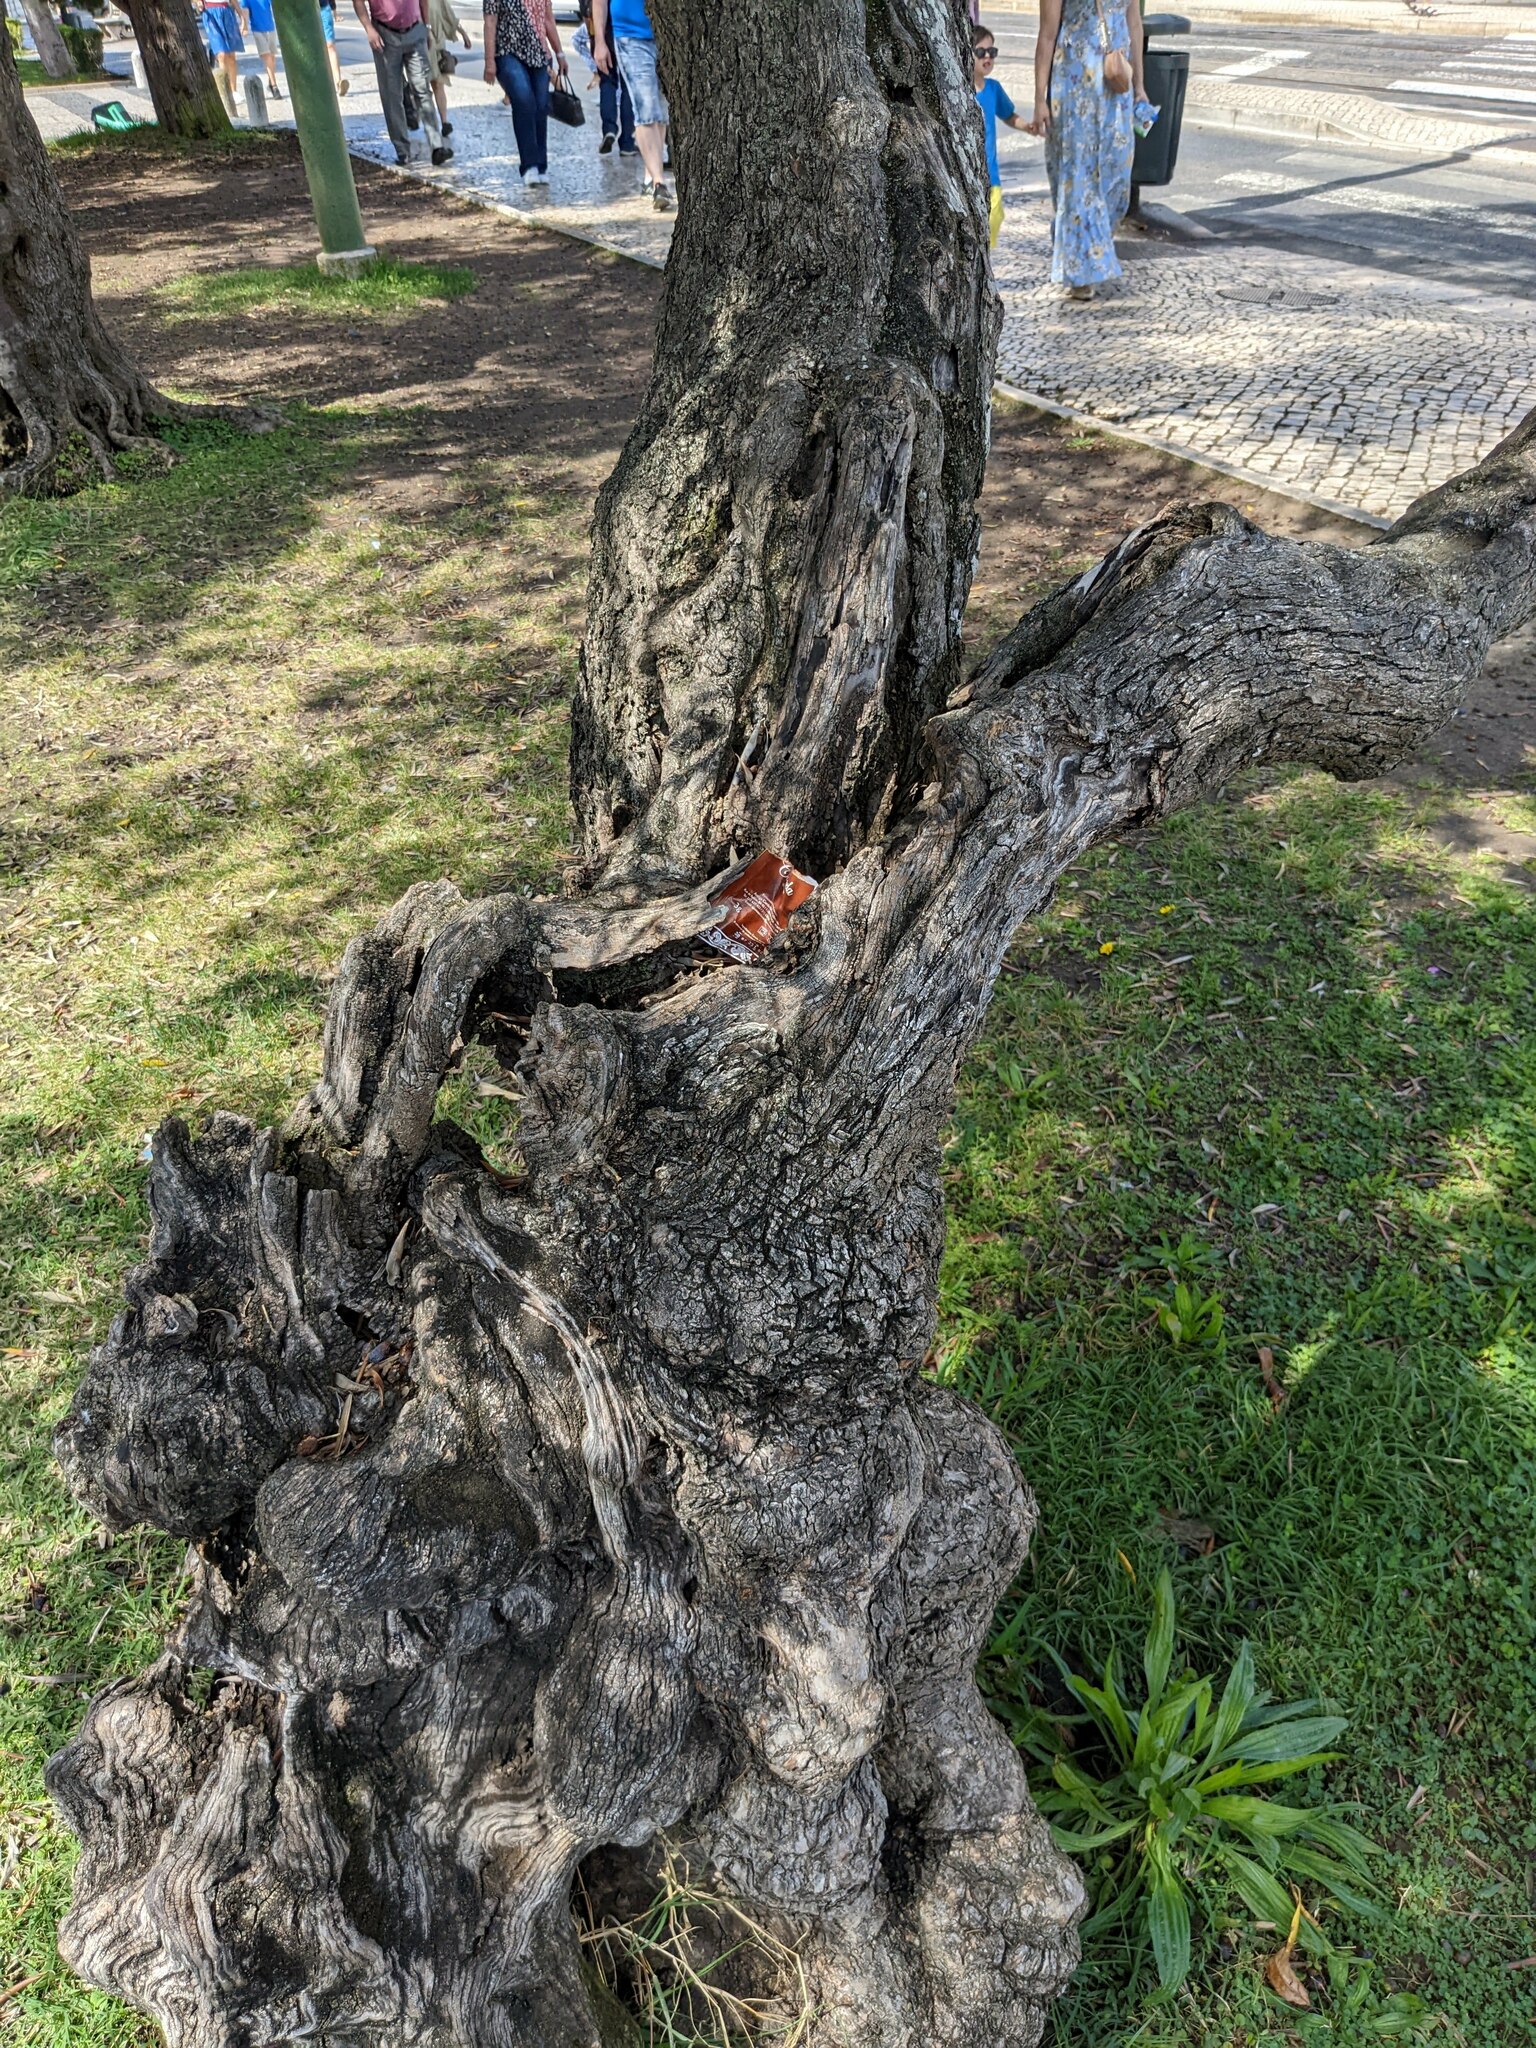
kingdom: Plantae
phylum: Tracheophyta
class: Magnoliopsida
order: Lamiales
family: Oleaceae
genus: Olea
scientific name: Olea europaea
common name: Olive
